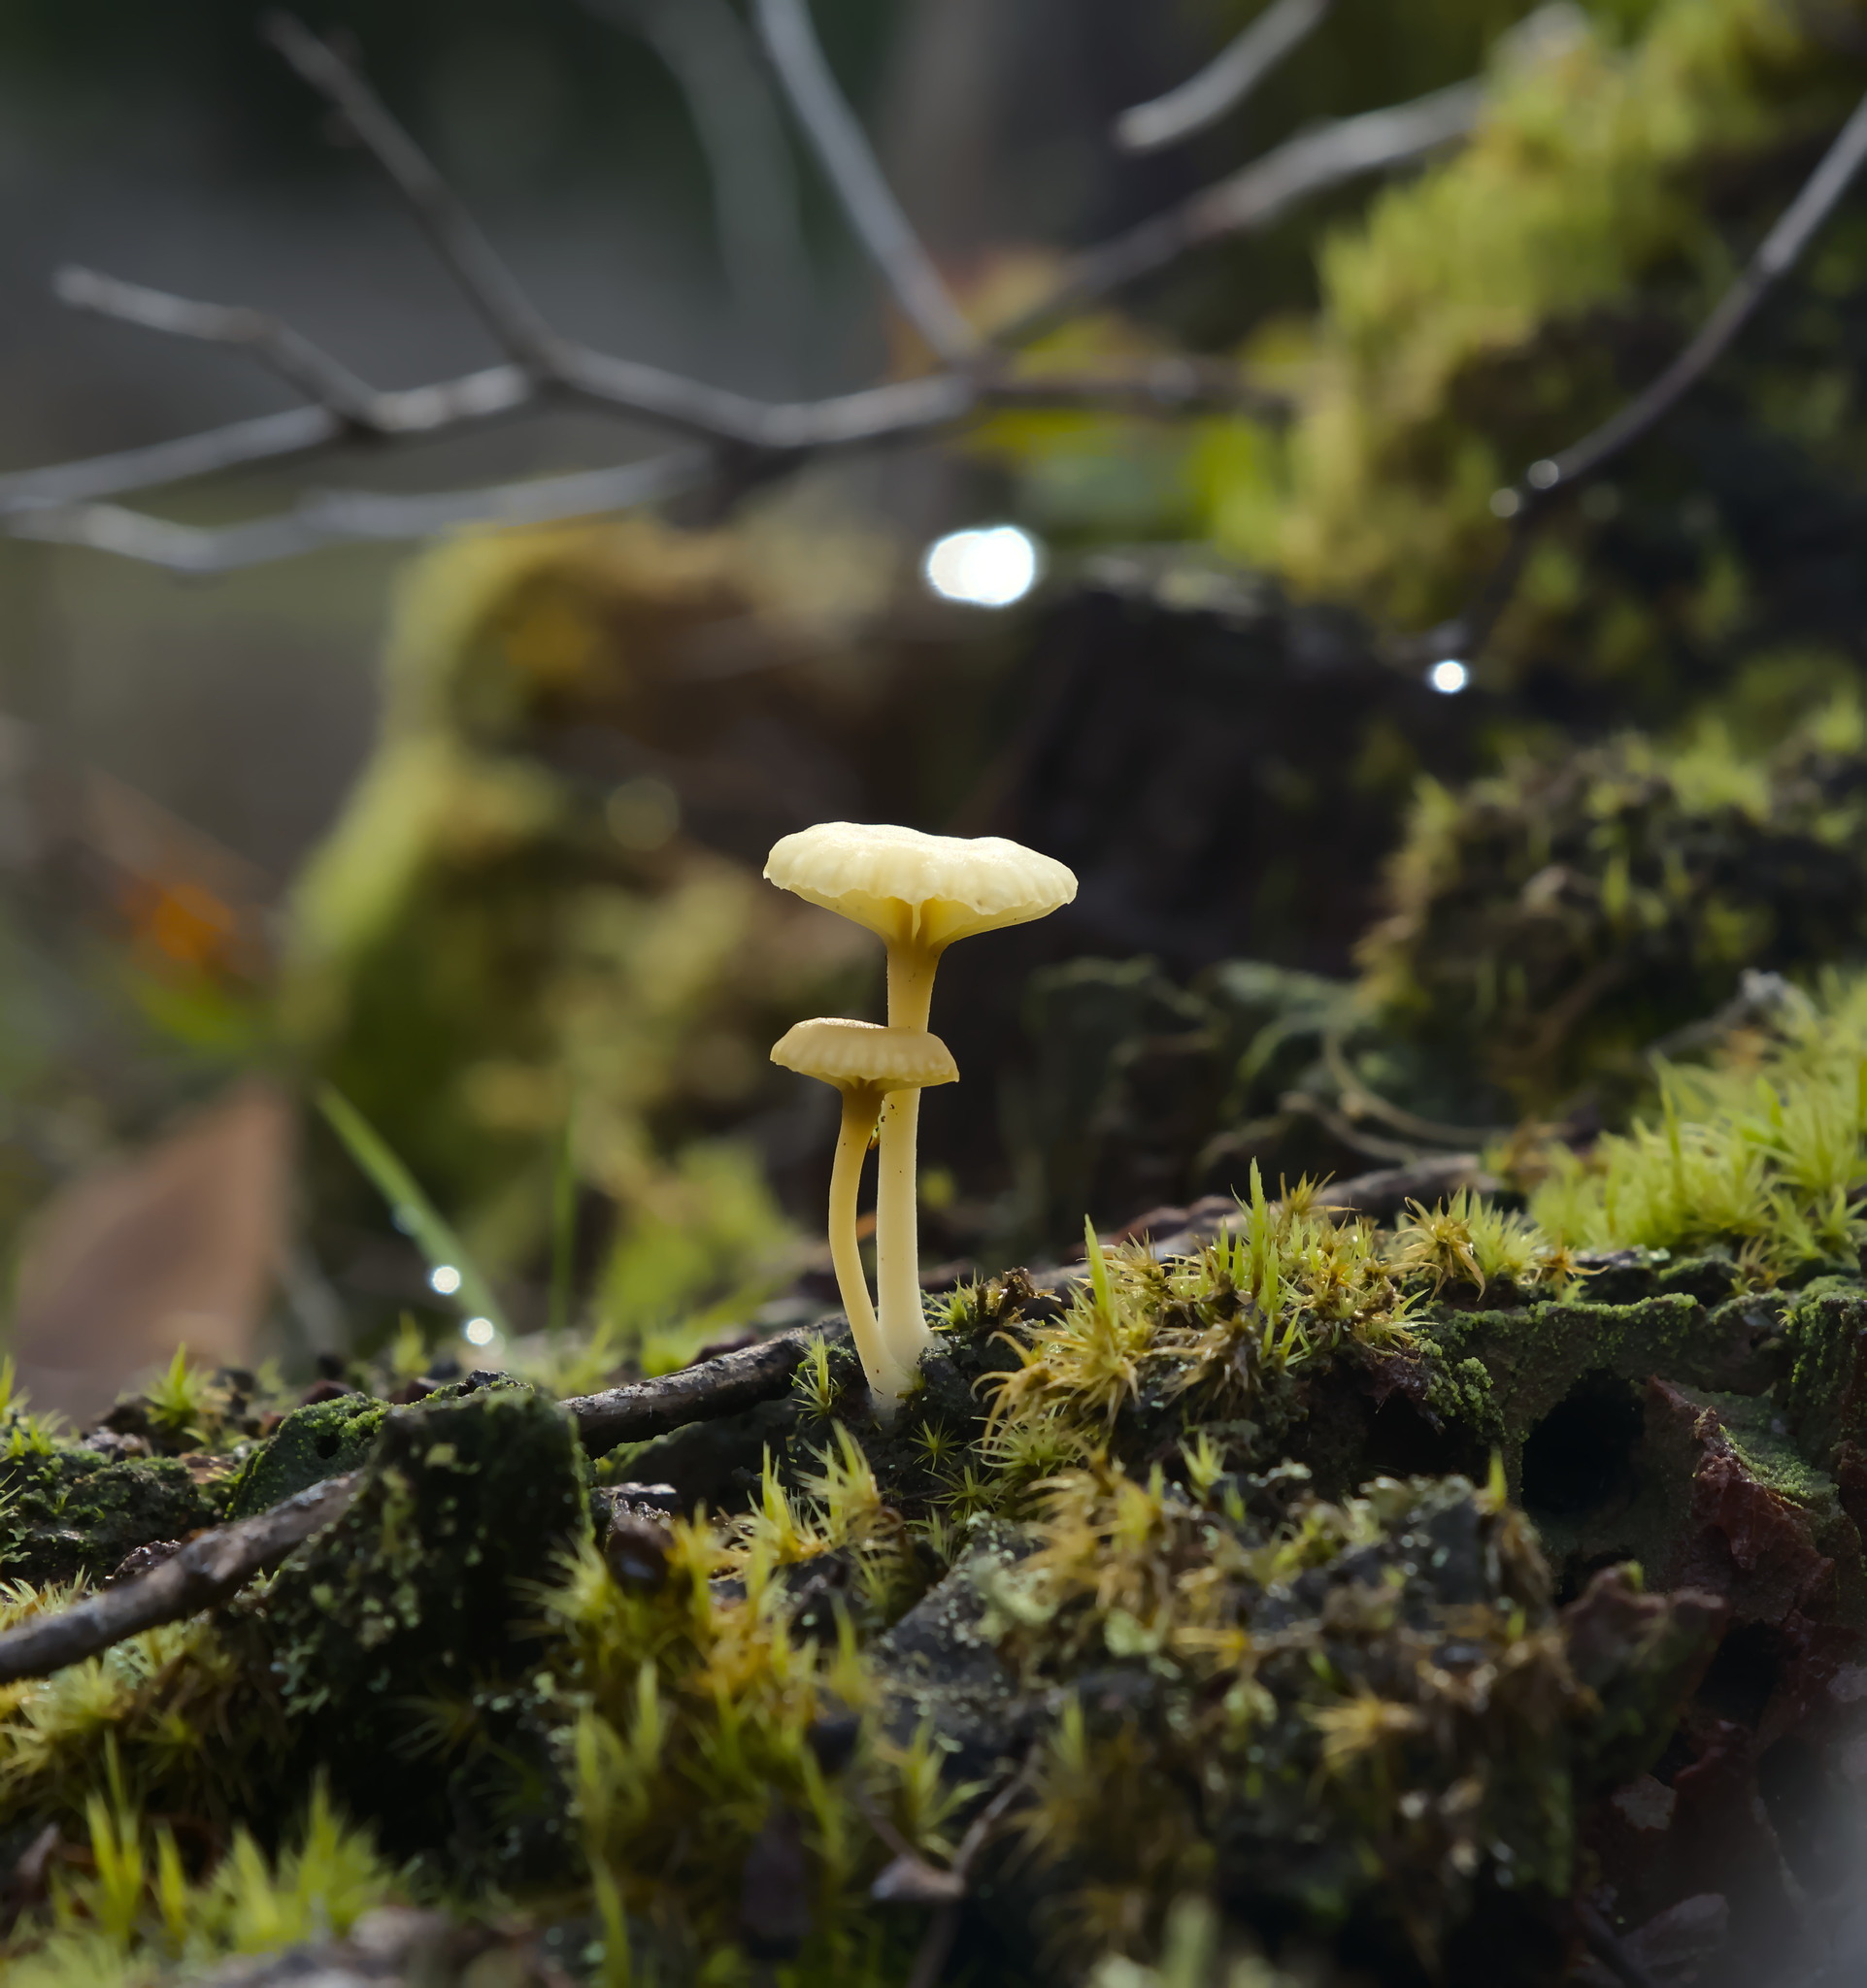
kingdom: Fungi
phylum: Basidiomycota
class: Agaricomycetes
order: Agaricales
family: Hygrophoraceae
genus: Lichenomphalia
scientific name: Lichenomphalia
